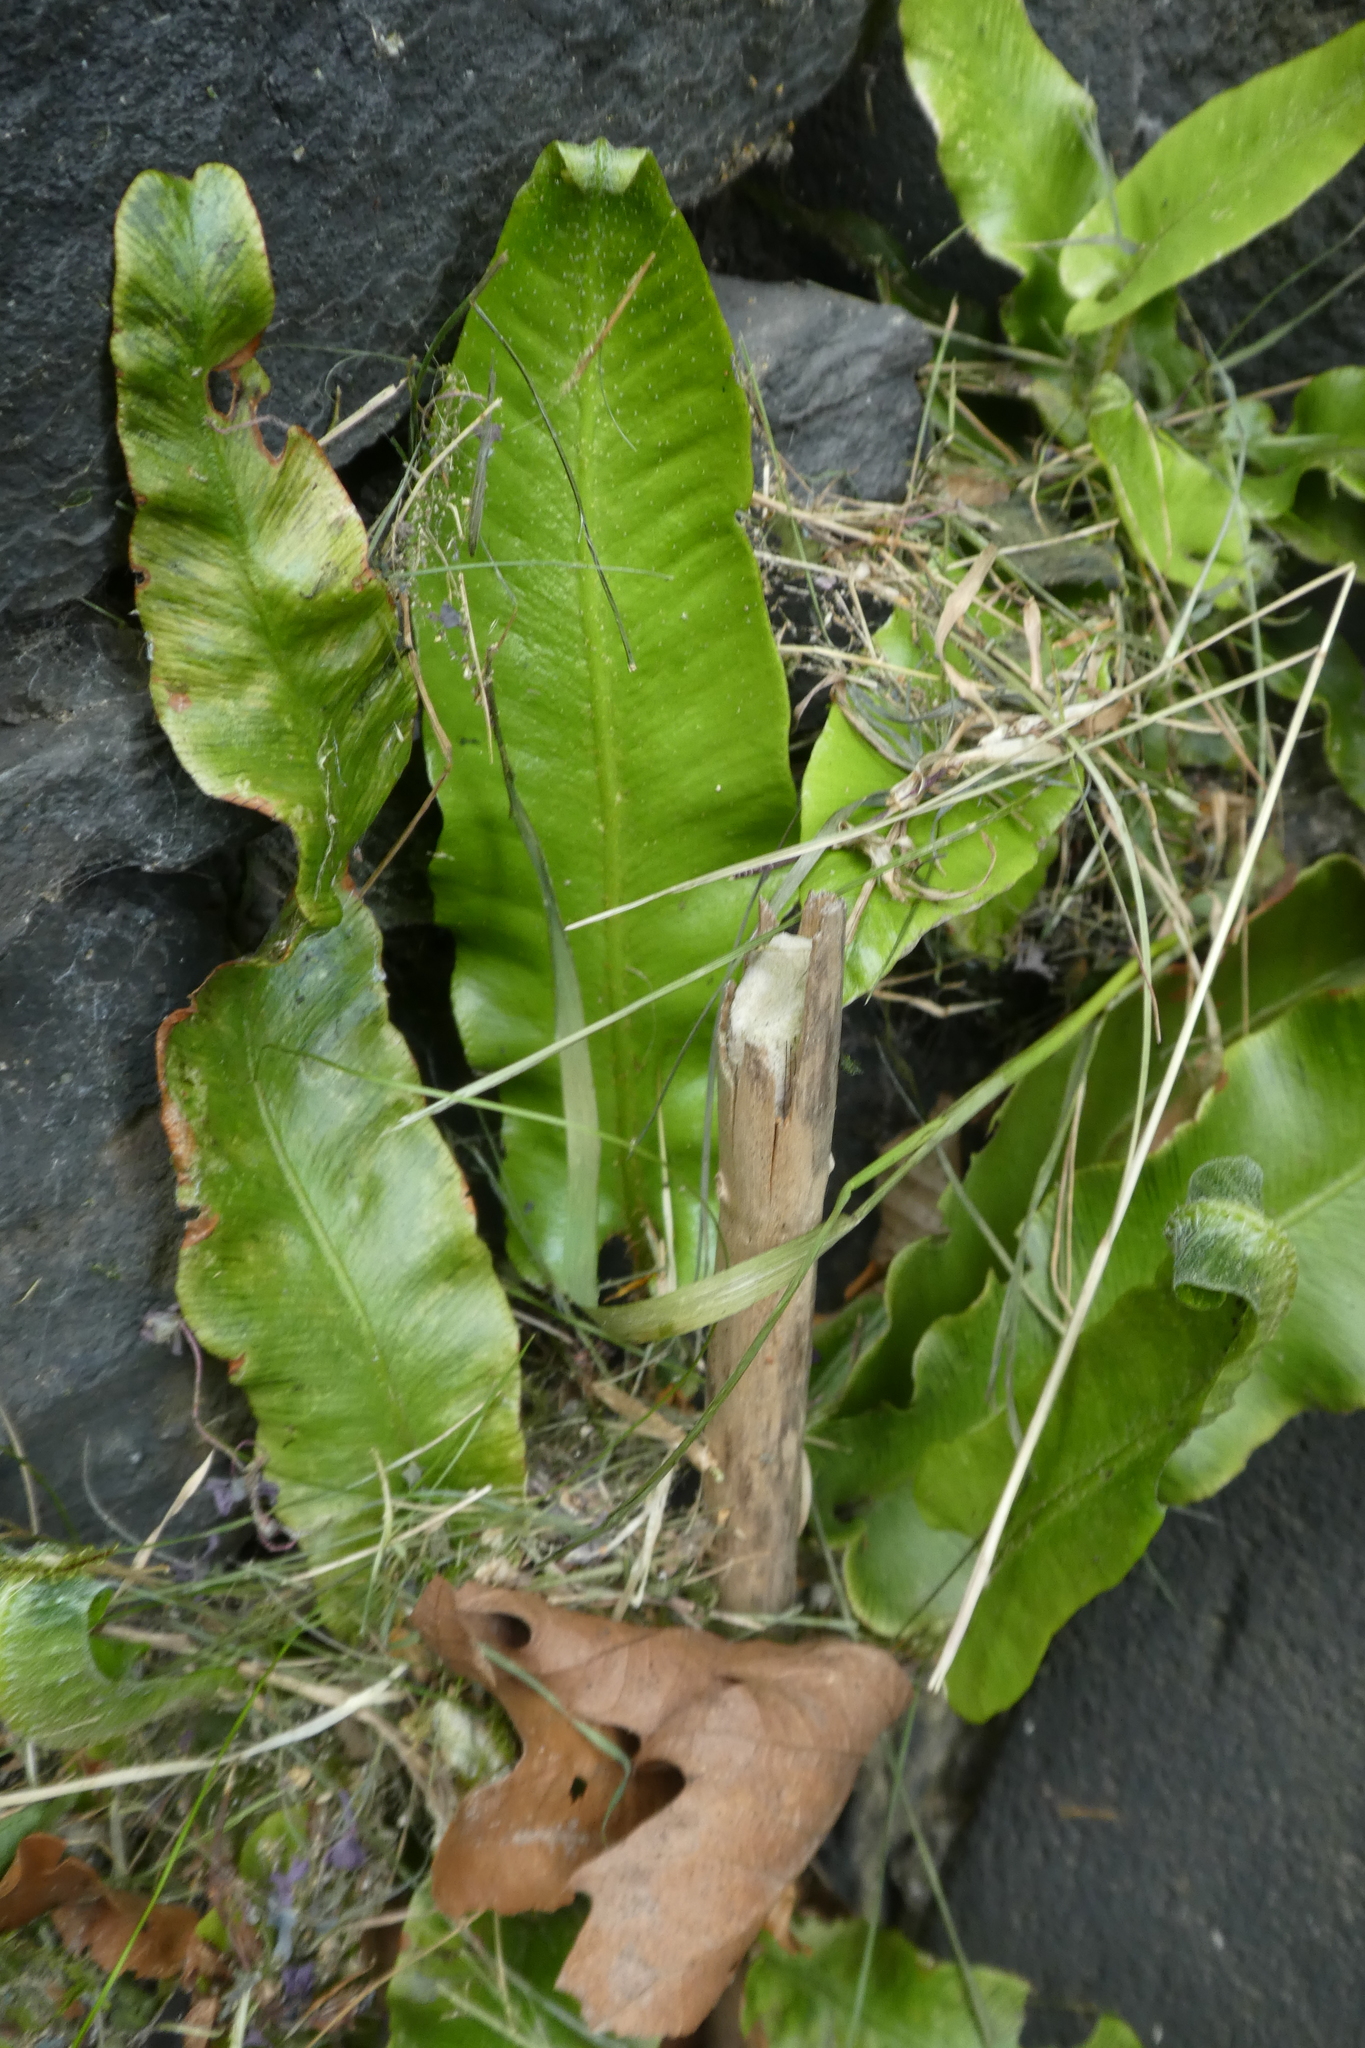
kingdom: Plantae
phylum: Tracheophyta
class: Polypodiopsida
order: Polypodiales
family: Aspleniaceae
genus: Asplenium
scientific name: Asplenium scolopendrium
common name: Hart's-tongue fern
